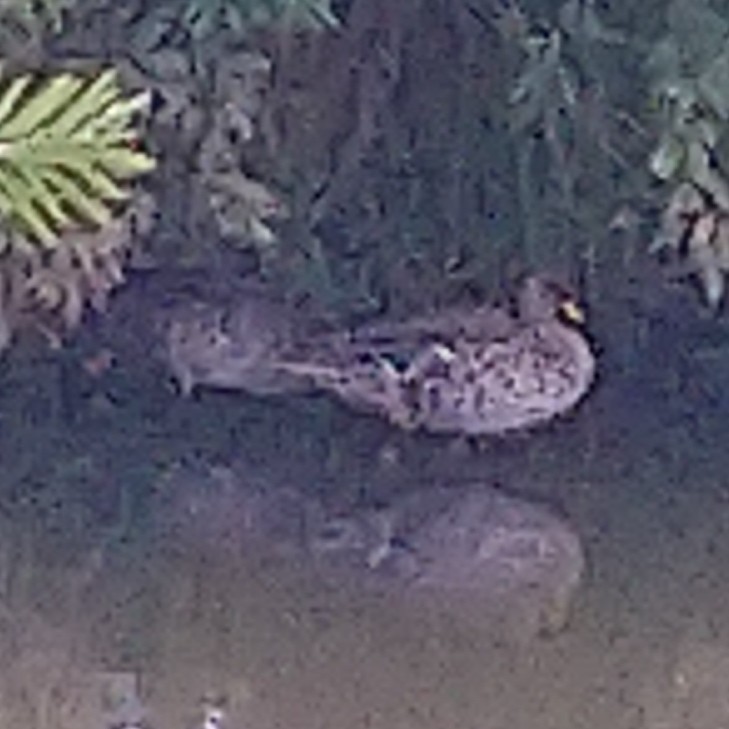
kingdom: Animalia
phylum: Chordata
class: Aves
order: Anseriformes
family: Anatidae
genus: Anas
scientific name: Anas undulata
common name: Yellow-billed duck
